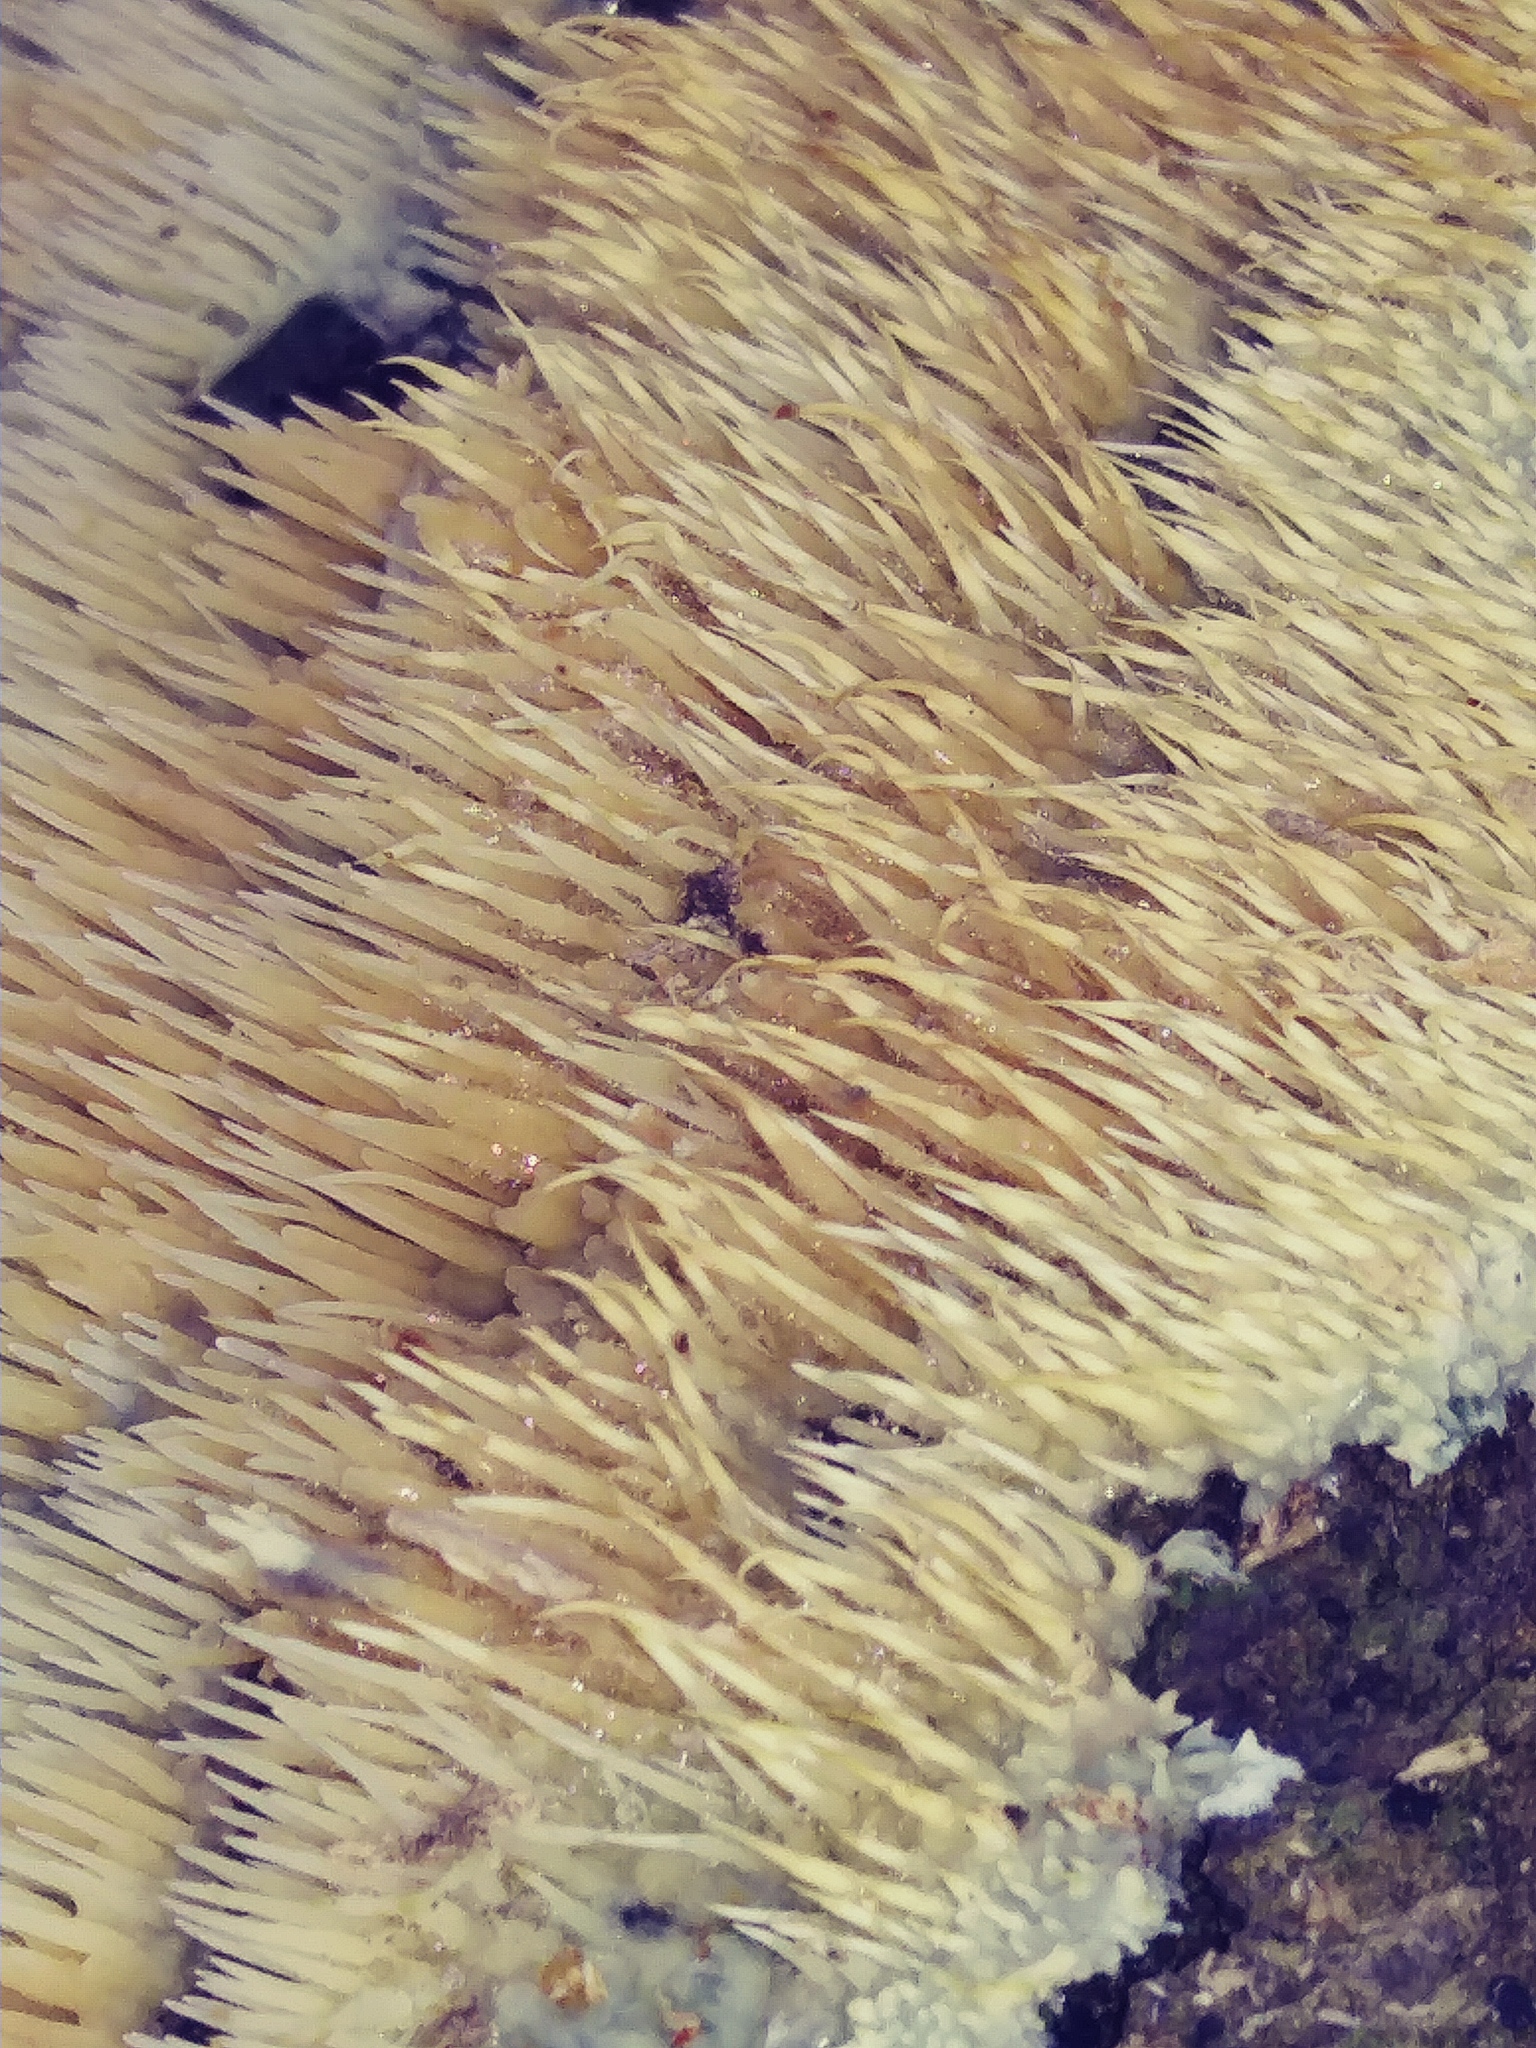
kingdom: Fungi
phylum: Basidiomycota
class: Agaricomycetes
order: Agaricales
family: Radulomycetaceae
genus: Radulomyces
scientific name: Radulomyces copelandii
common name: Asian beauty
